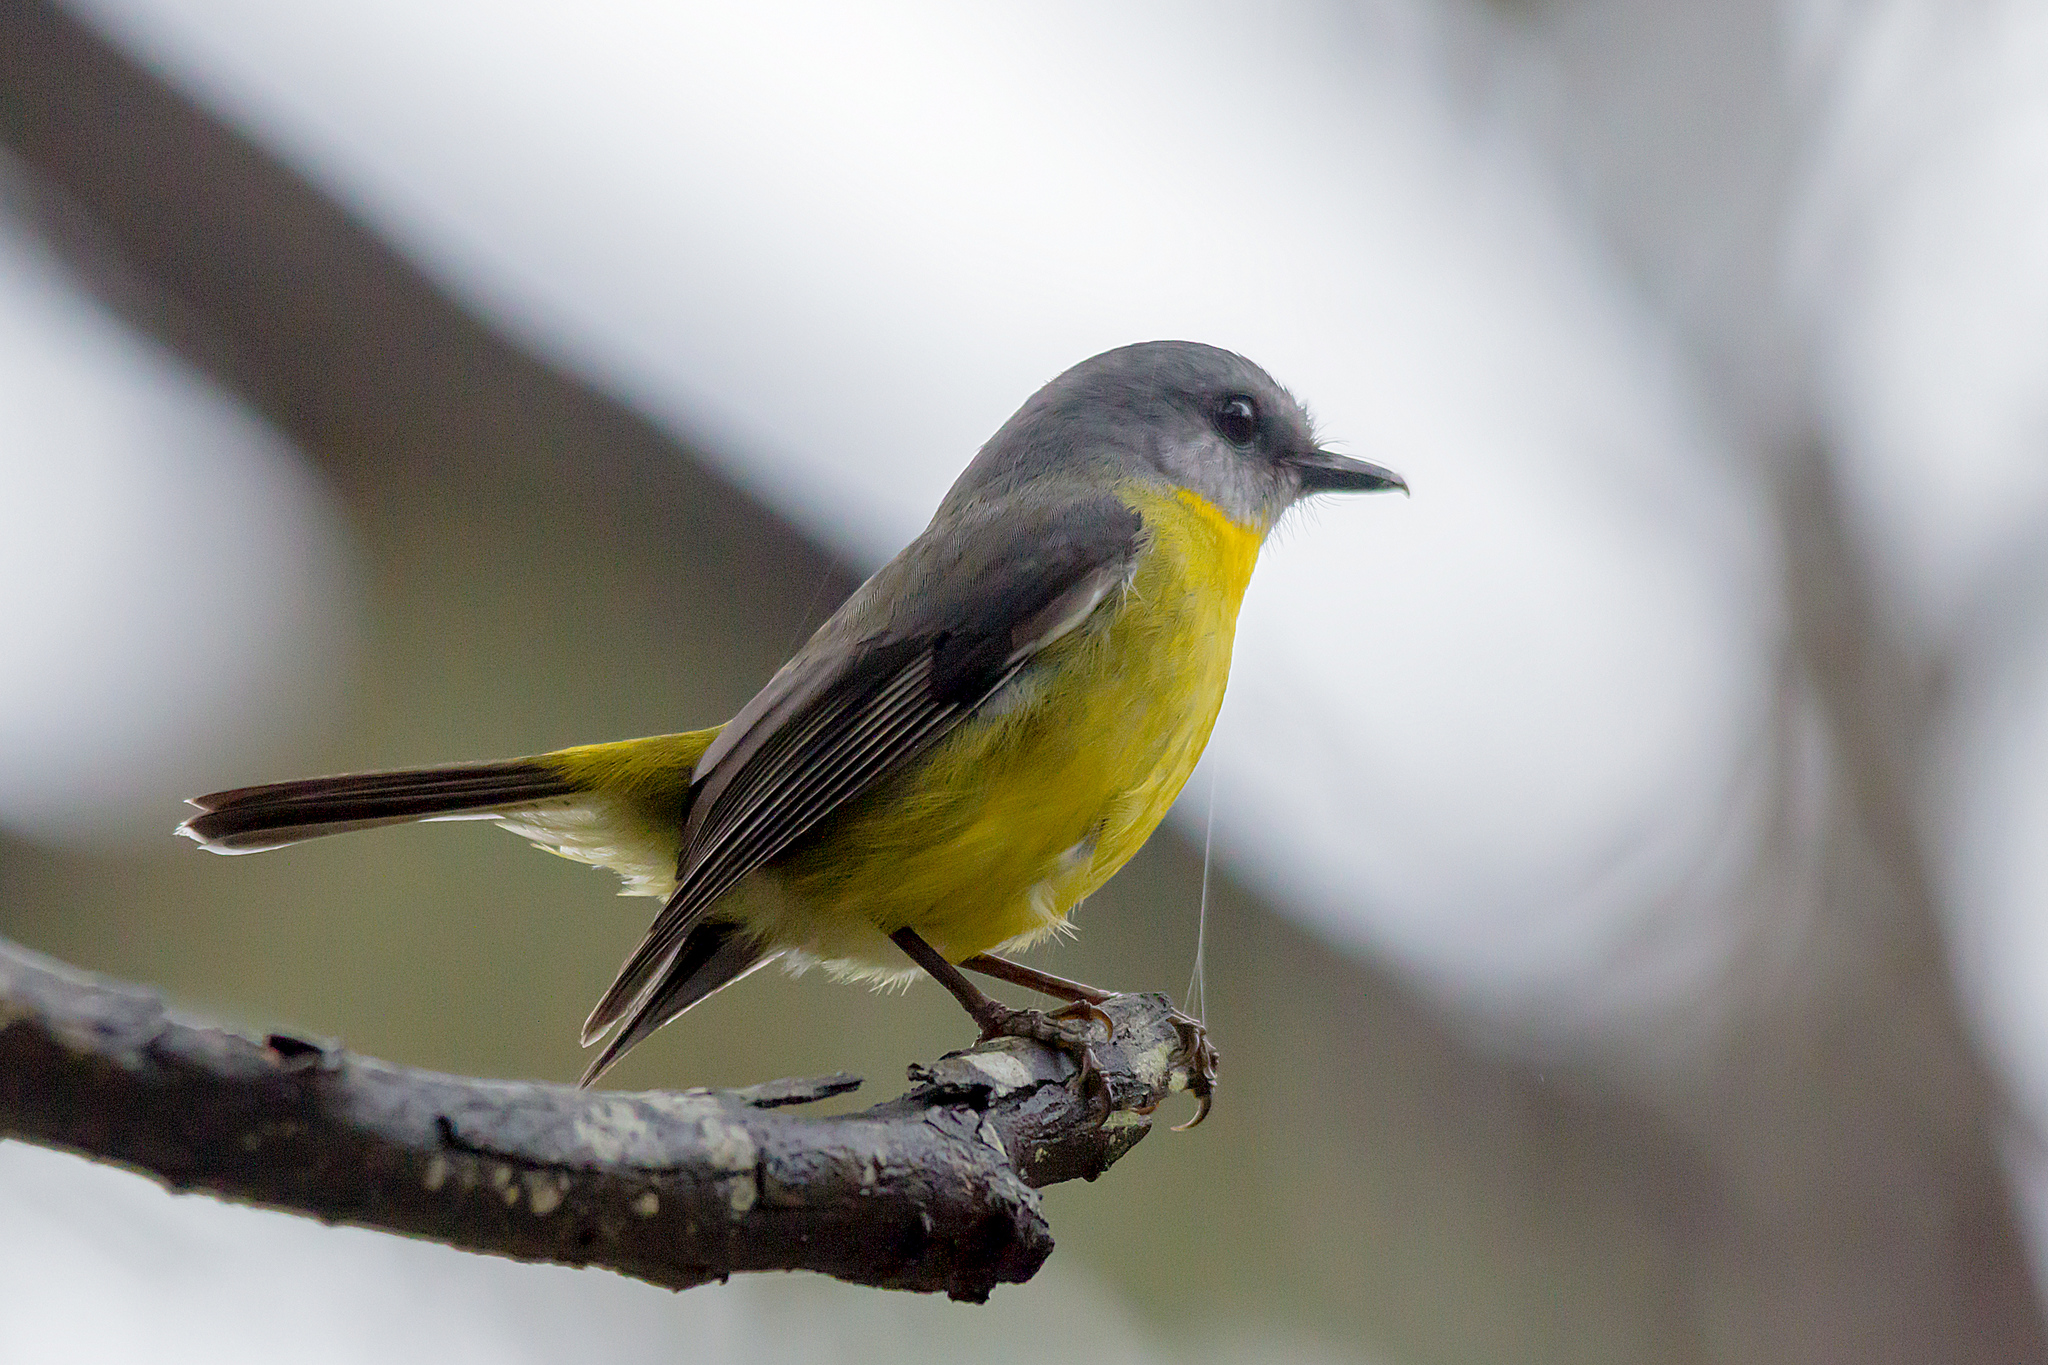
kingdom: Animalia
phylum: Chordata
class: Aves
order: Passeriformes
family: Petroicidae
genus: Eopsaltria
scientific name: Eopsaltria australis
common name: Eastern yellow robin
